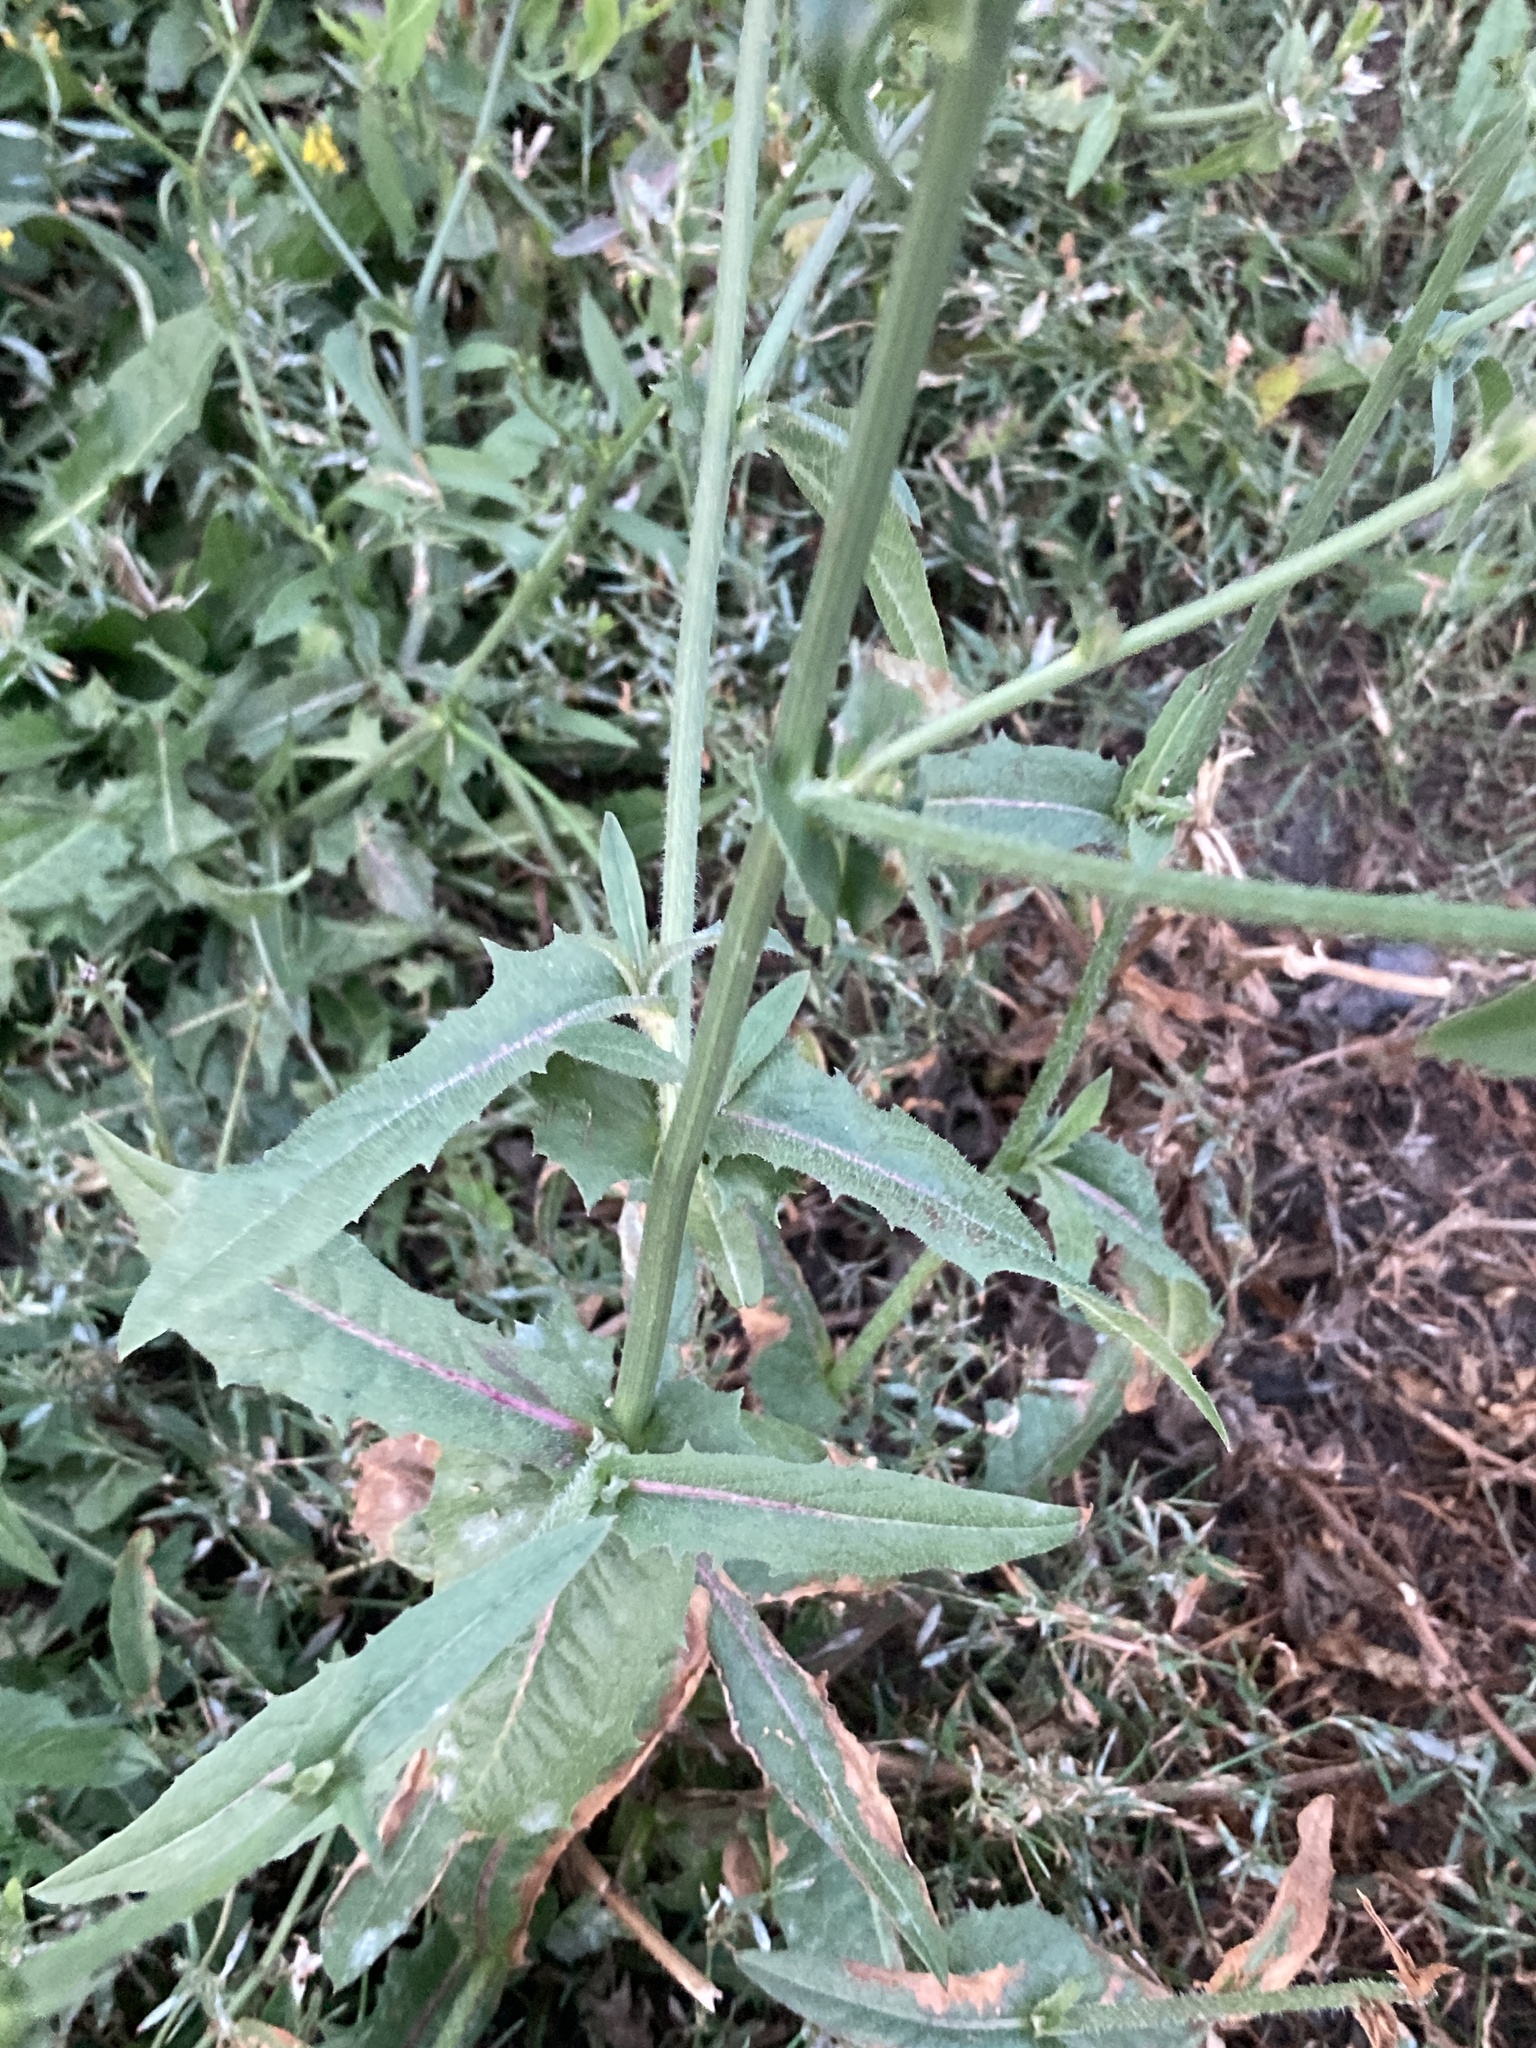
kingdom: Plantae
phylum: Tracheophyta
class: Magnoliopsida
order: Asterales
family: Asteraceae
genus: Cichorium
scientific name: Cichorium intybus
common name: Chicory
